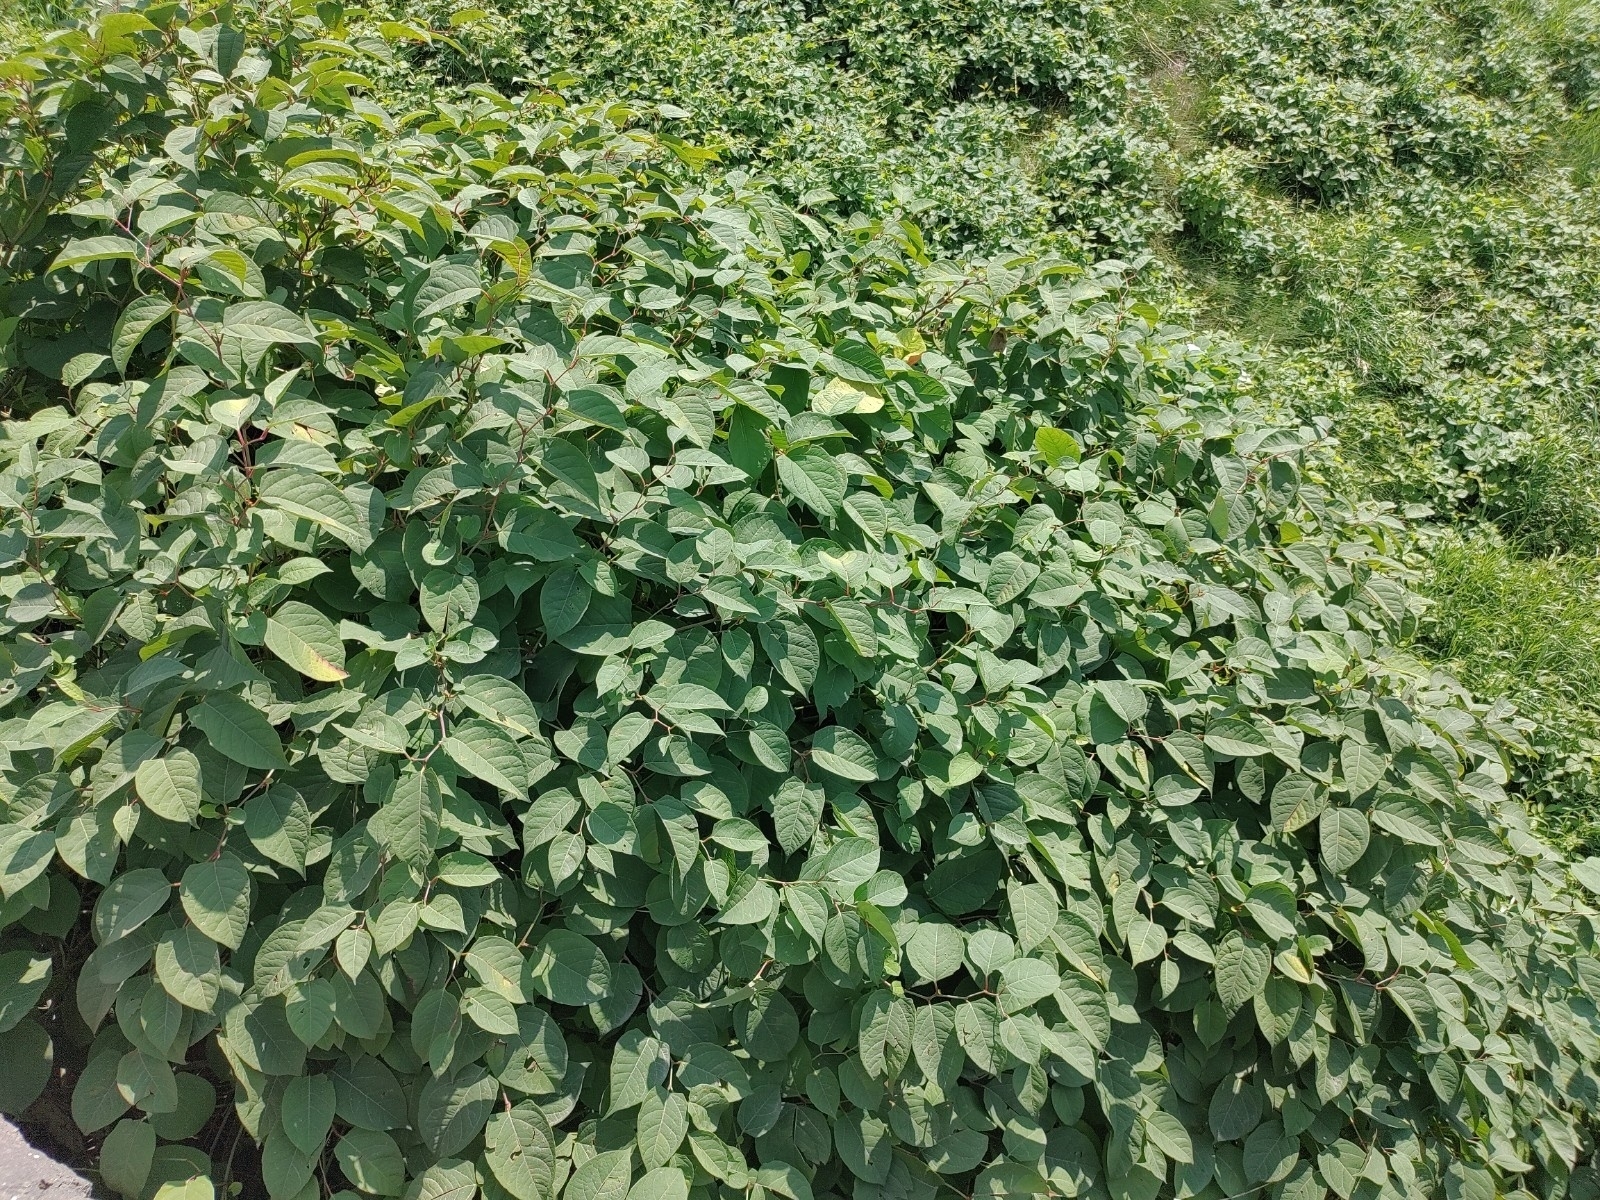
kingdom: Plantae
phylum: Tracheophyta
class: Magnoliopsida
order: Caryophyllales
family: Polygonaceae
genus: Reynoutria
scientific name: Reynoutria japonica
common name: Japanese knotweed
